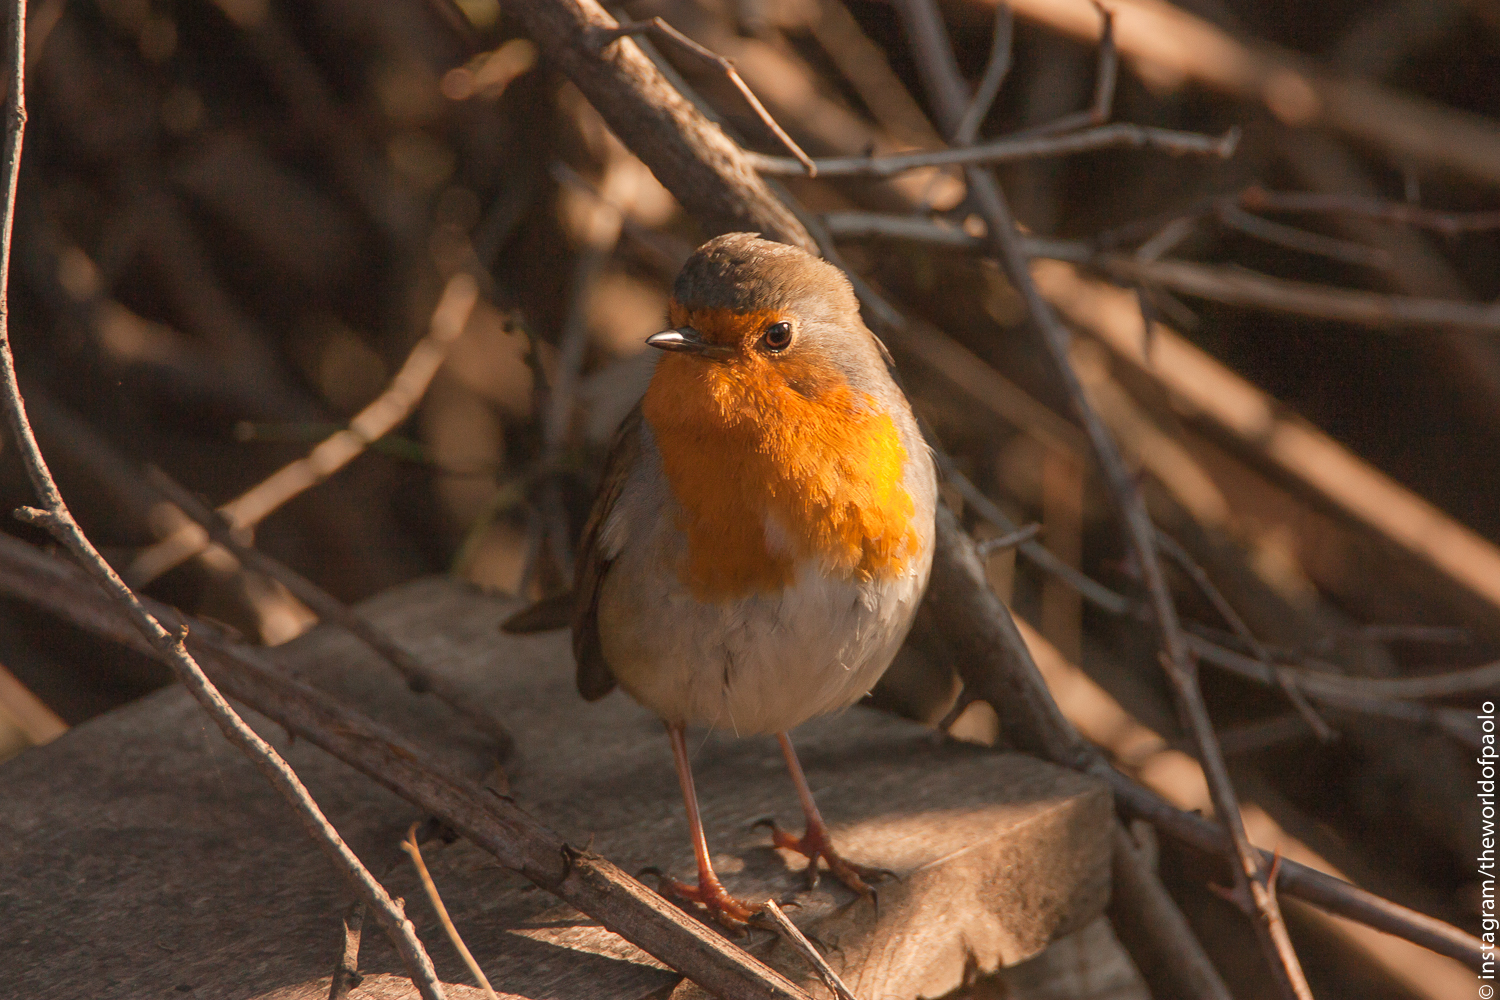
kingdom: Animalia
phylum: Chordata
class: Aves
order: Passeriformes
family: Muscicapidae
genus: Erithacus
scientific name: Erithacus rubecula
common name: European robin
